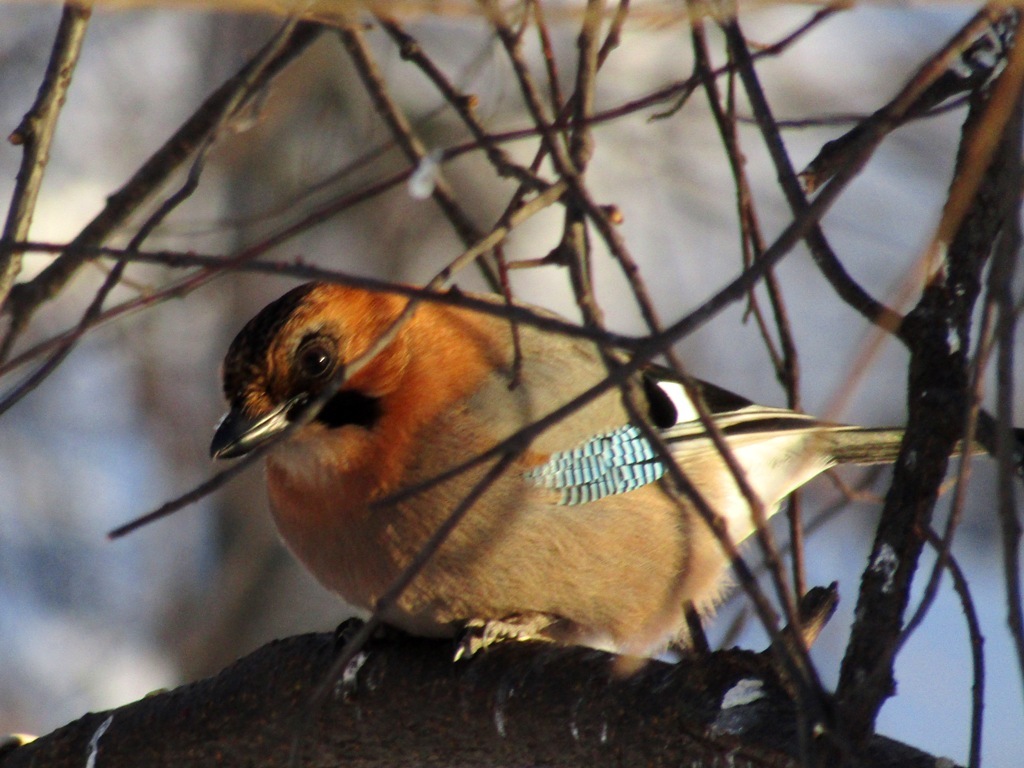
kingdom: Animalia
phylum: Chordata
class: Aves
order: Passeriformes
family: Corvidae
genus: Garrulus
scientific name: Garrulus glandarius
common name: Eurasian jay
